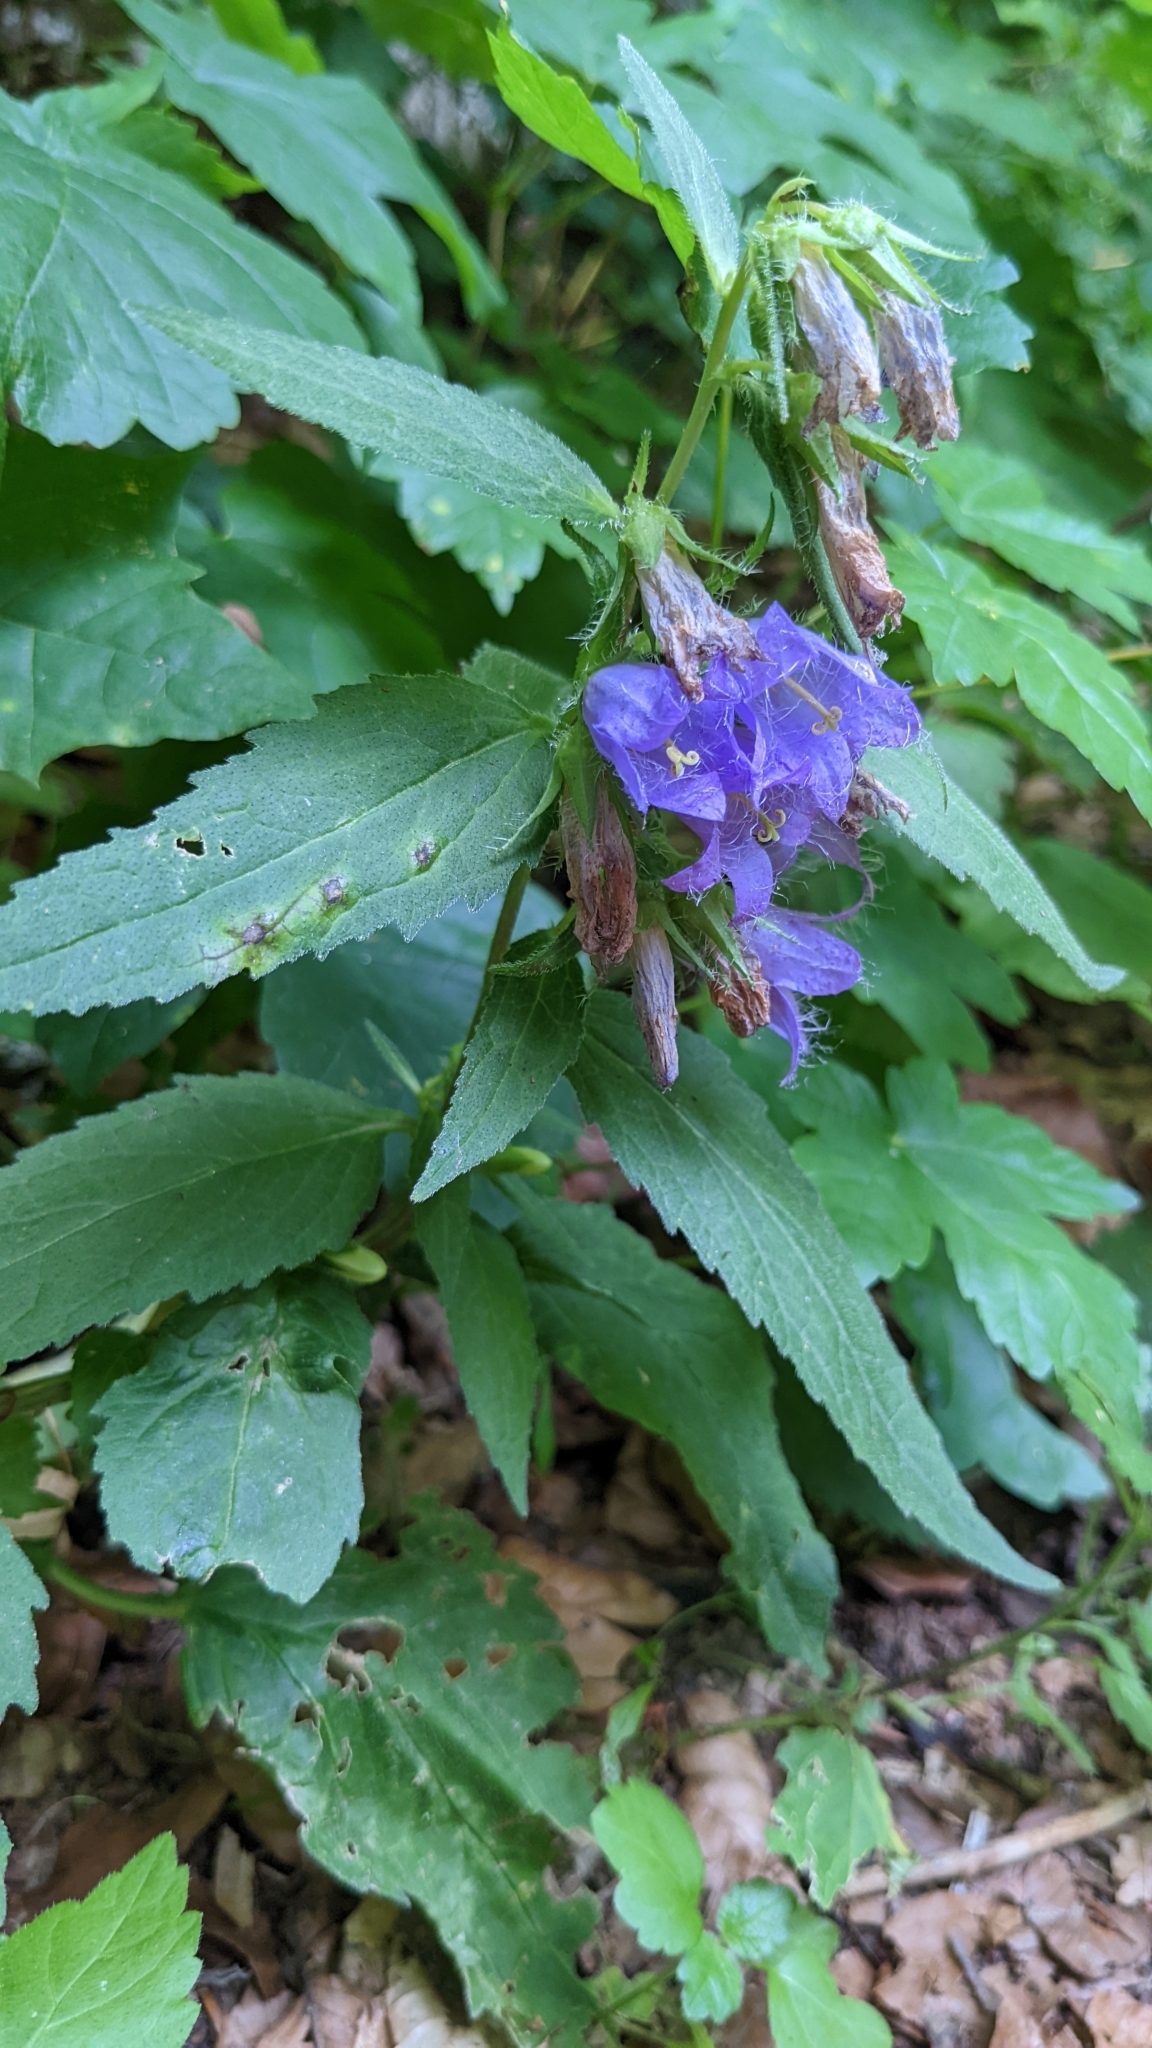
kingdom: Plantae
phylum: Tracheophyta
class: Magnoliopsida
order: Asterales
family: Campanulaceae
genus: Campanula
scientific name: Campanula trachelium
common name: Nettle-leaved bellflower
